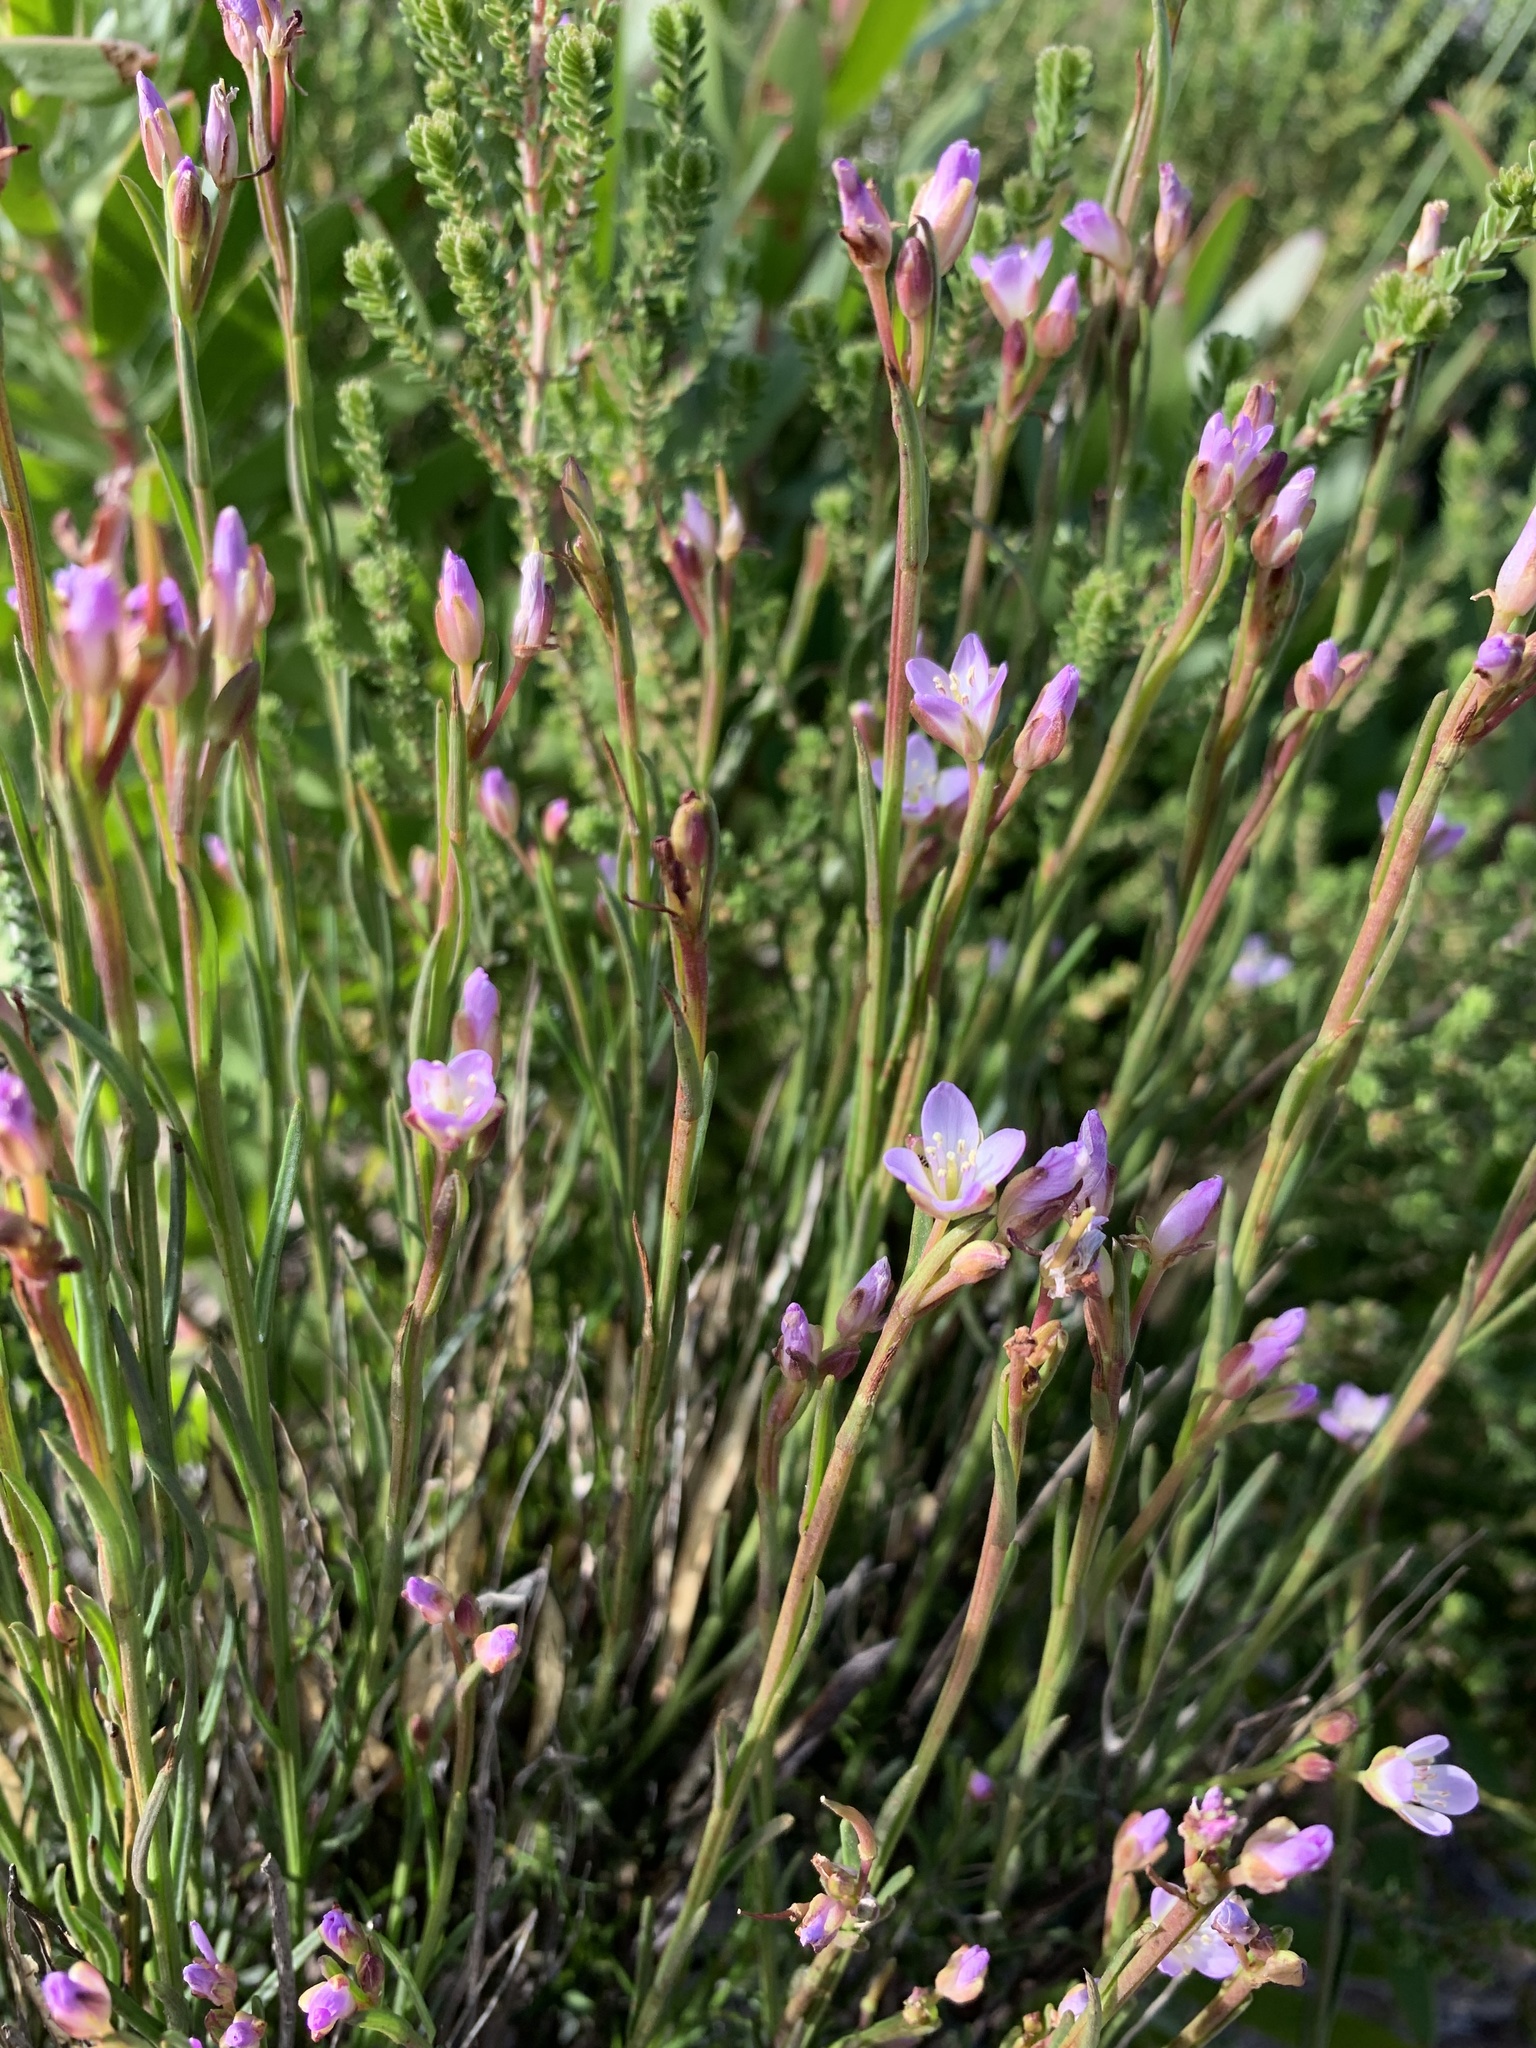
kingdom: Plantae
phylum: Tracheophyta
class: Magnoliopsida
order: Brassicales
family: Brassicaceae
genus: Heliophila
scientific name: Heliophila scoparia
